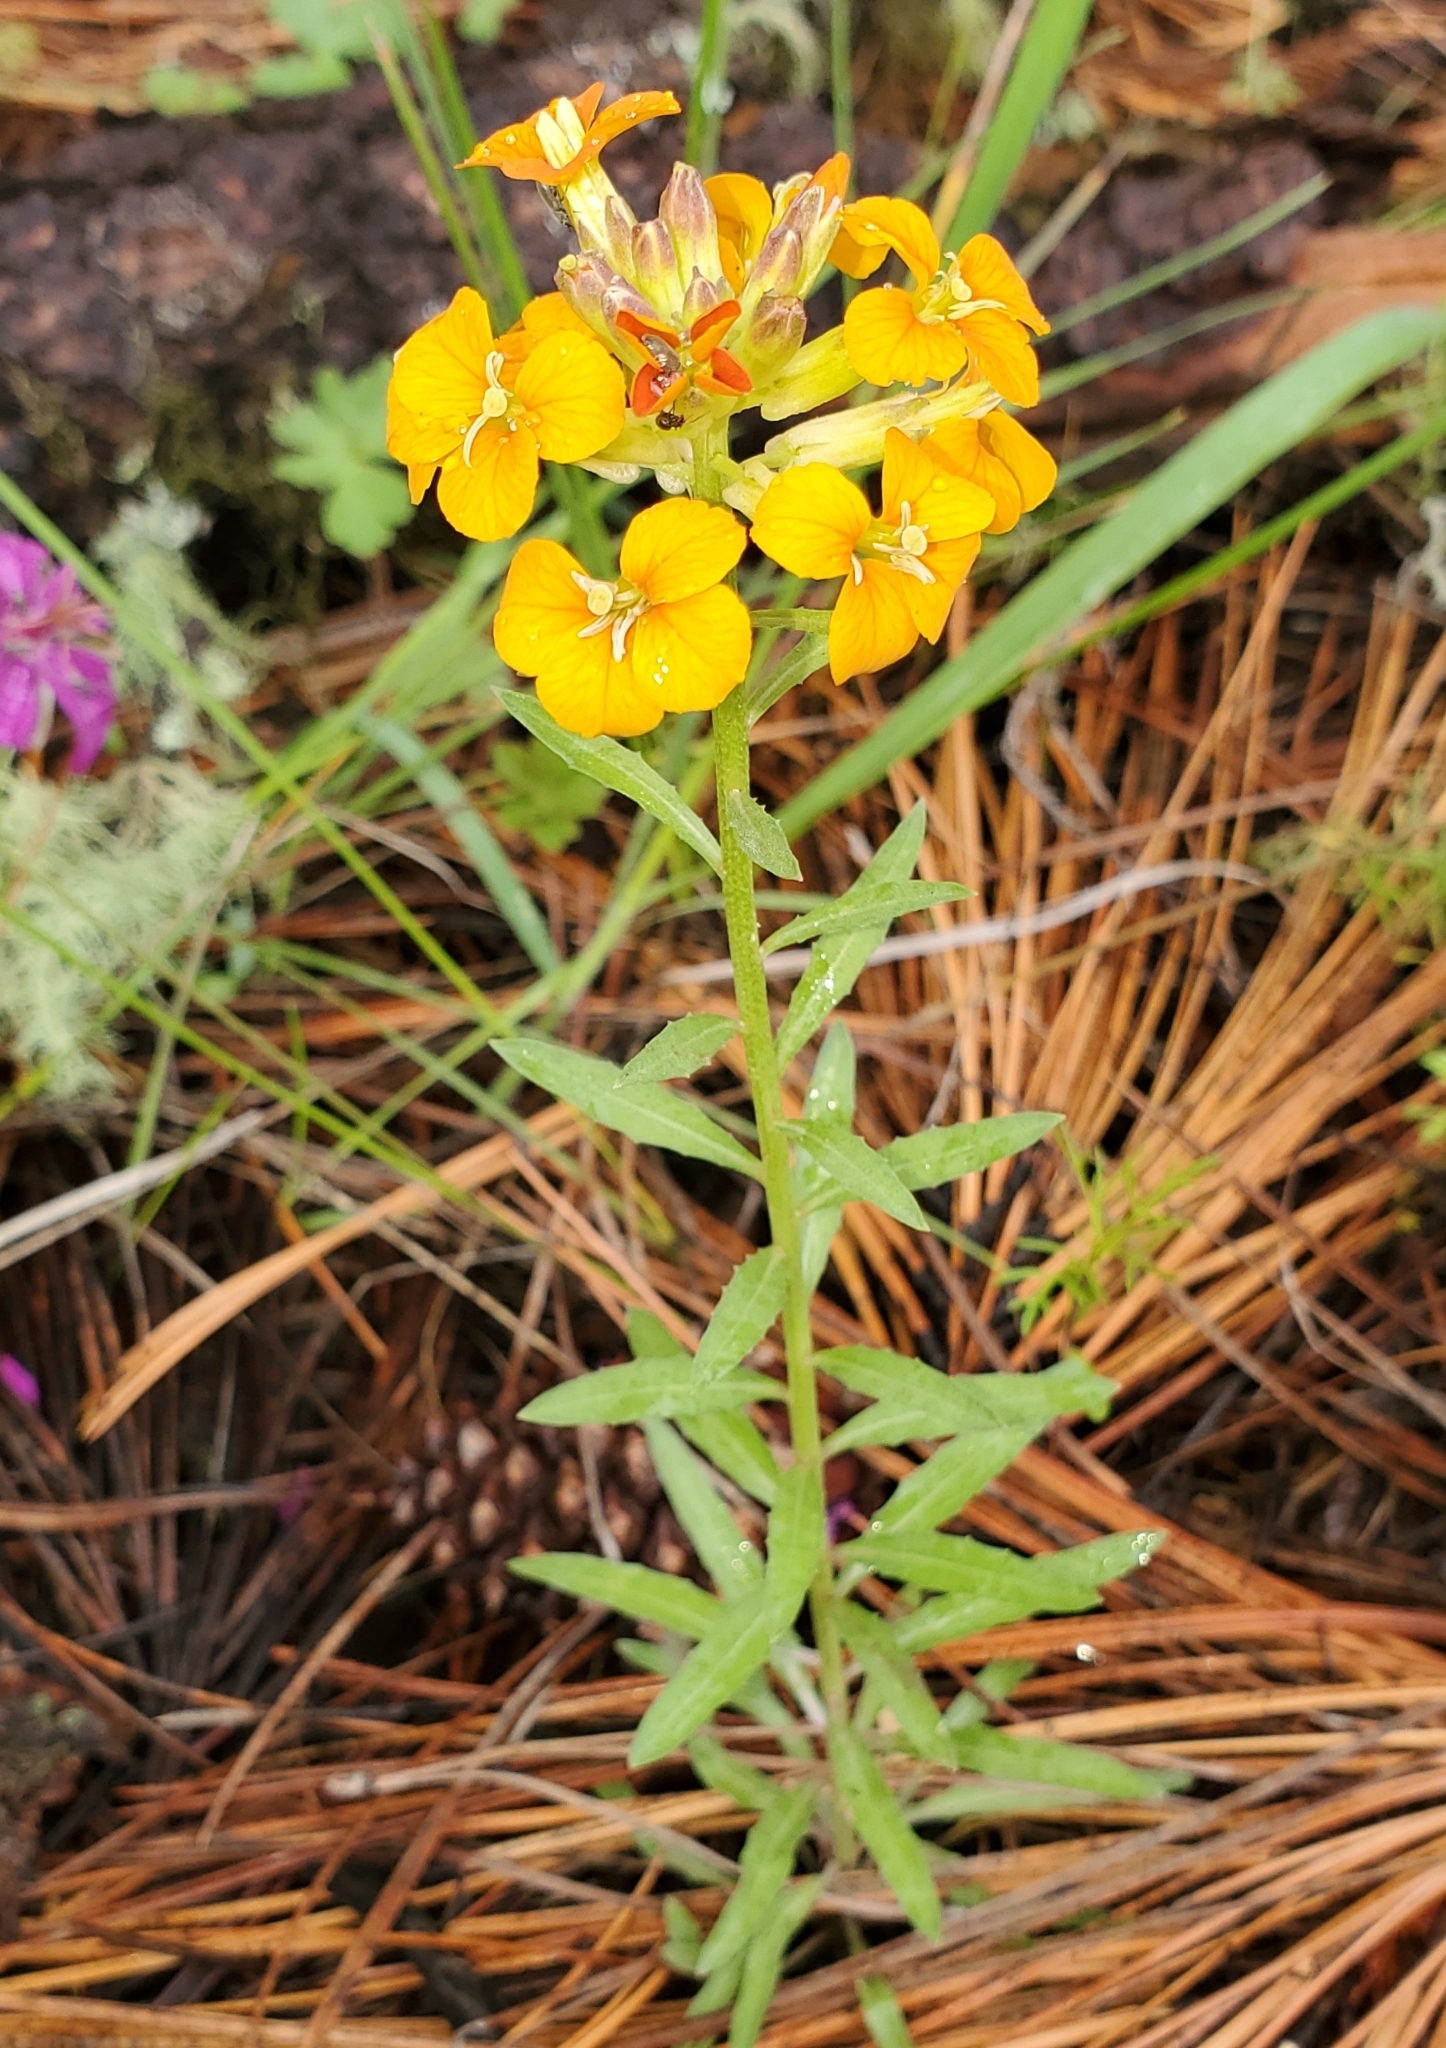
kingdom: Plantae
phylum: Tracheophyta
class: Magnoliopsida
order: Brassicales
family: Brassicaceae
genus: Erysimum
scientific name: Erysimum capitatum
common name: Western wallflower
